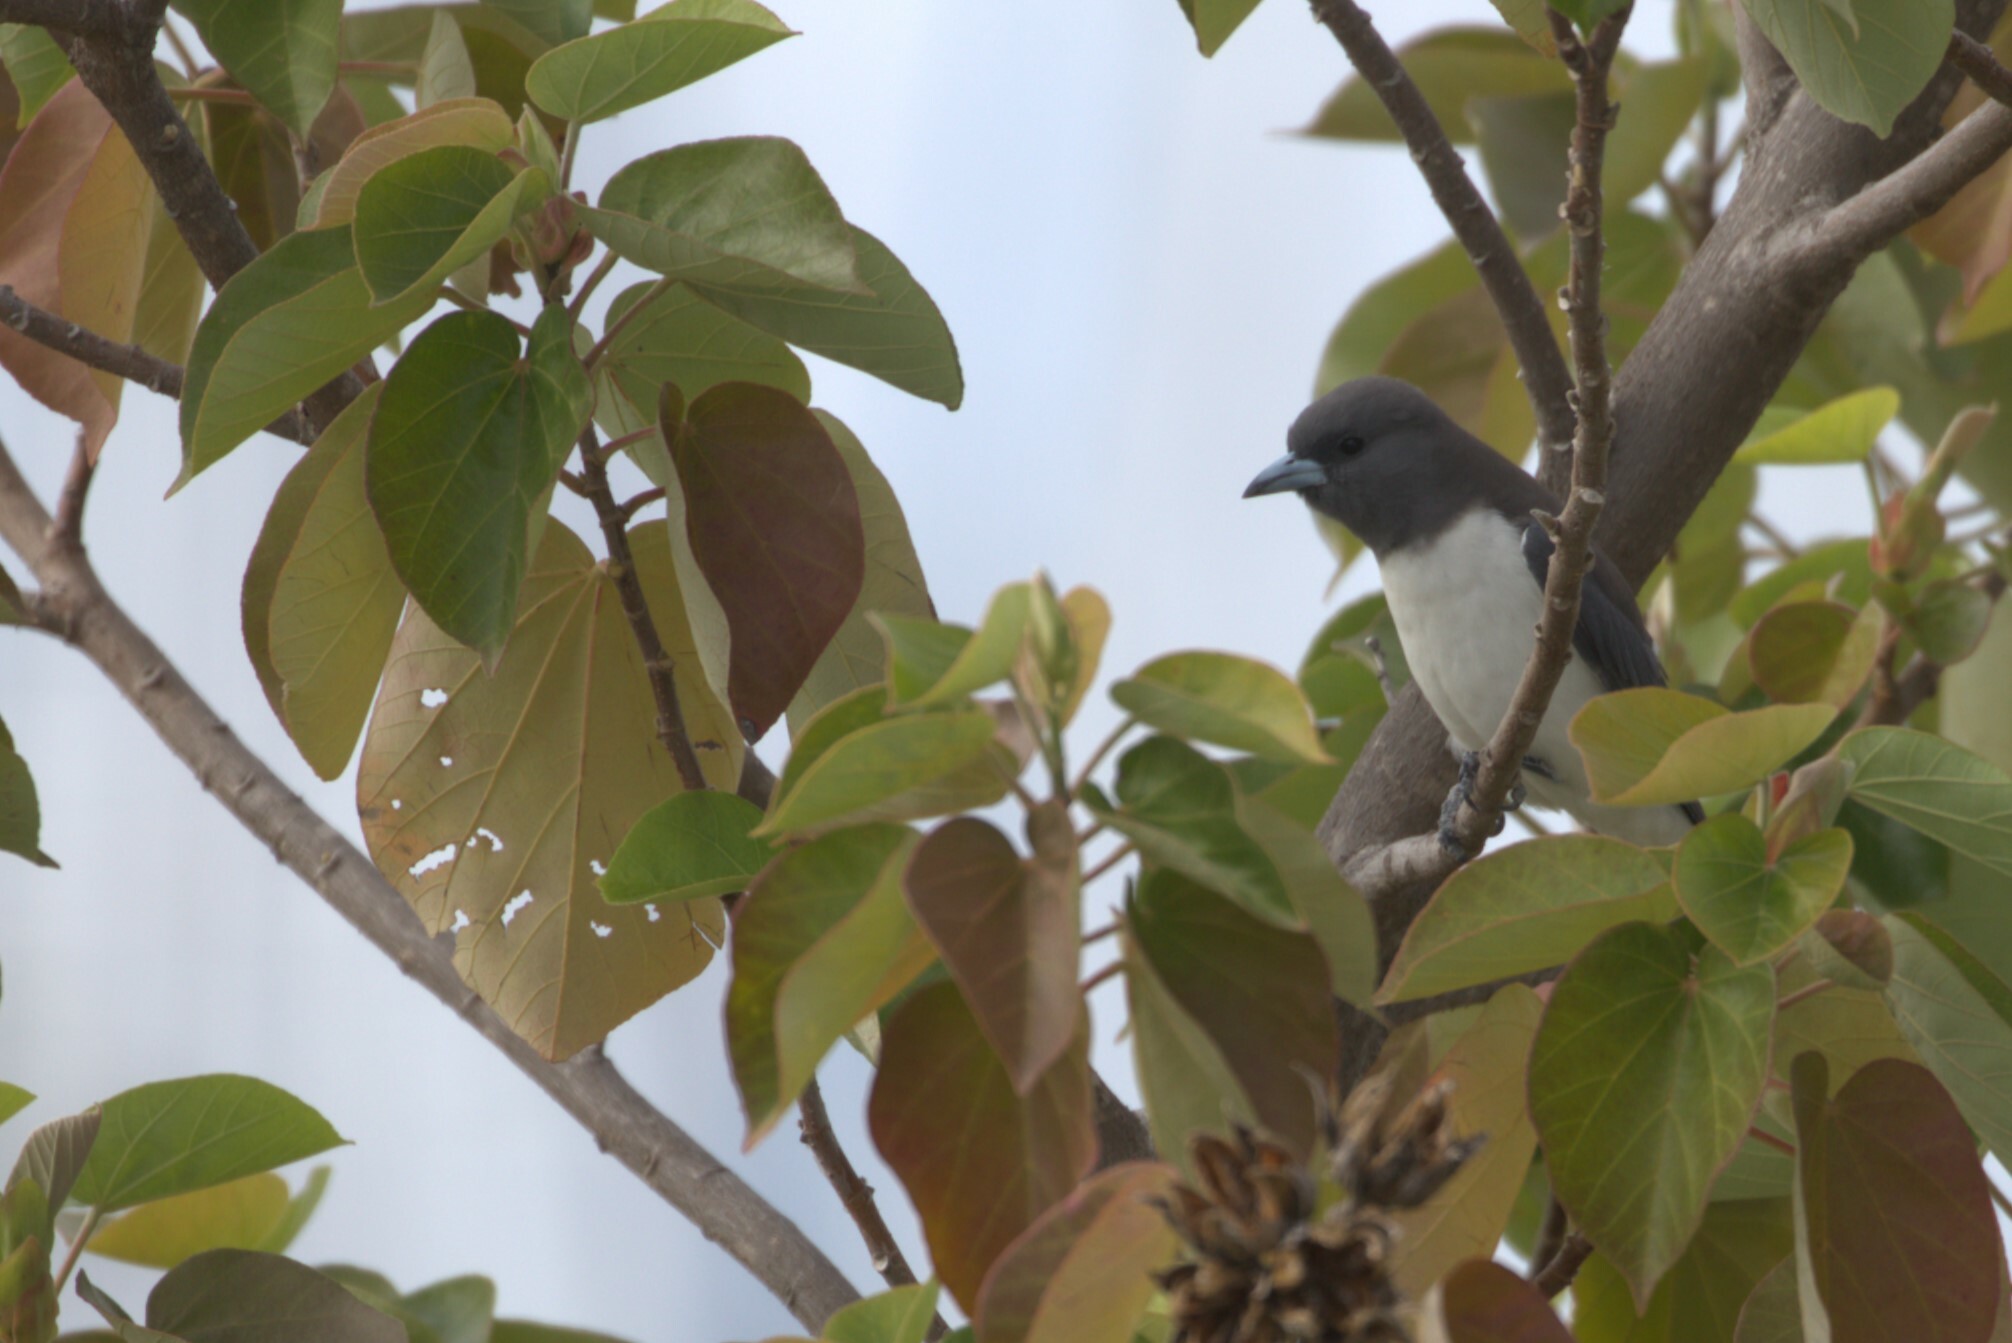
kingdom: Animalia
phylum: Chordata
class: Aves
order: Passeriformes
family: Artamidae
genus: Artamus
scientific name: Artamus leucoryn
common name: White-breasted woodswallow
